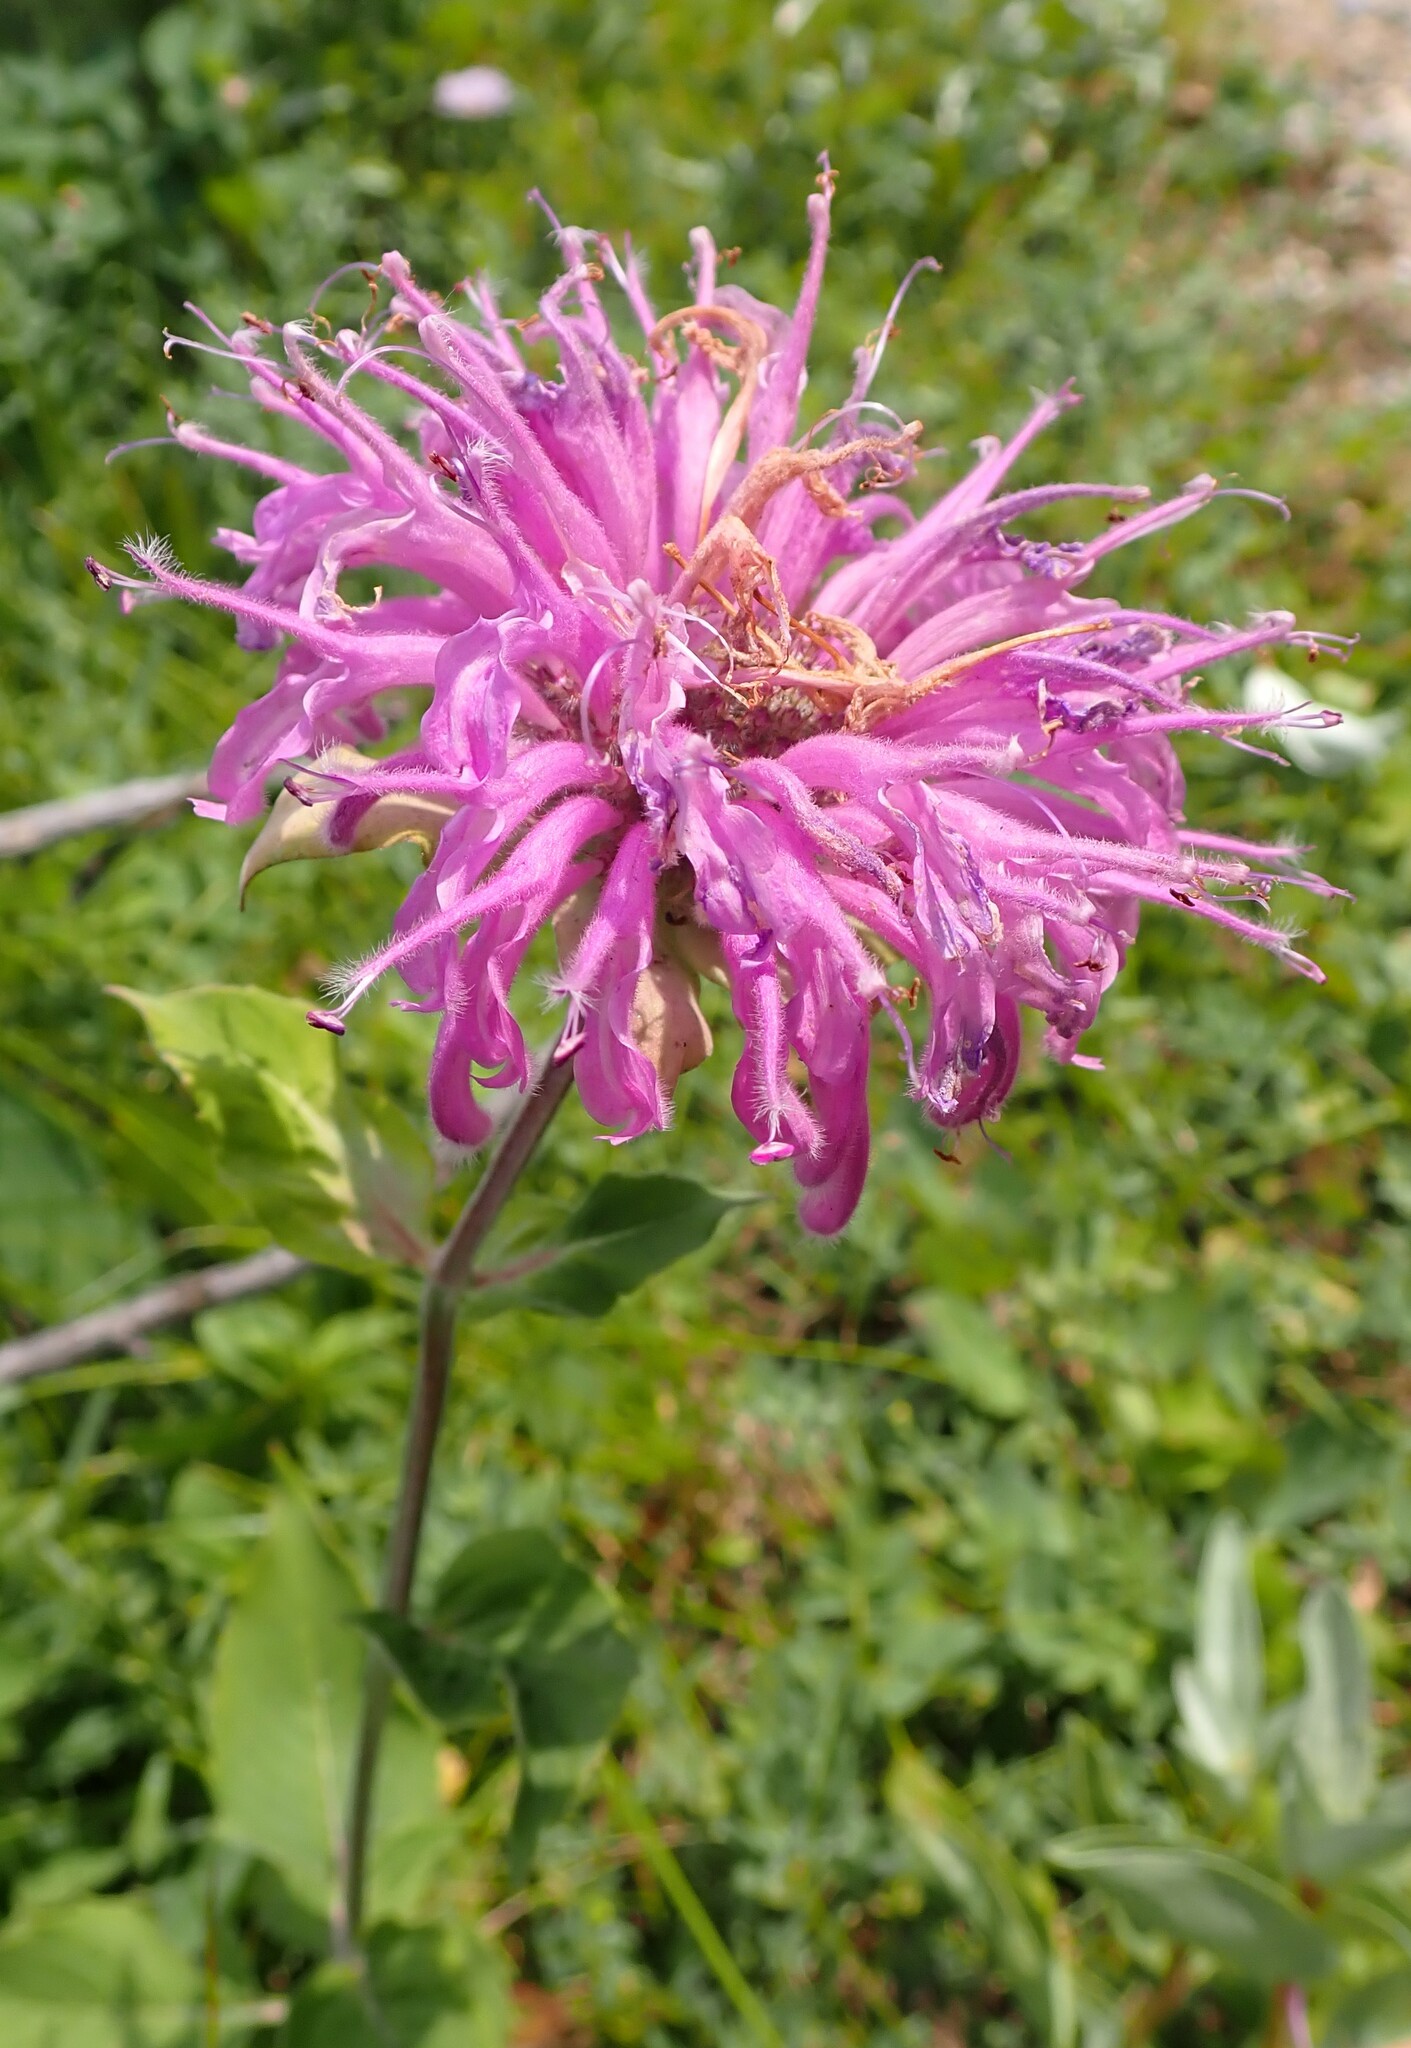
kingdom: Plantae
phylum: Tracheophyta
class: Magnoliopsida
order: Lamiales
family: Lamiaceae
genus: Monarda
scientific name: Monarda fistulosa
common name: Purple beebalm
